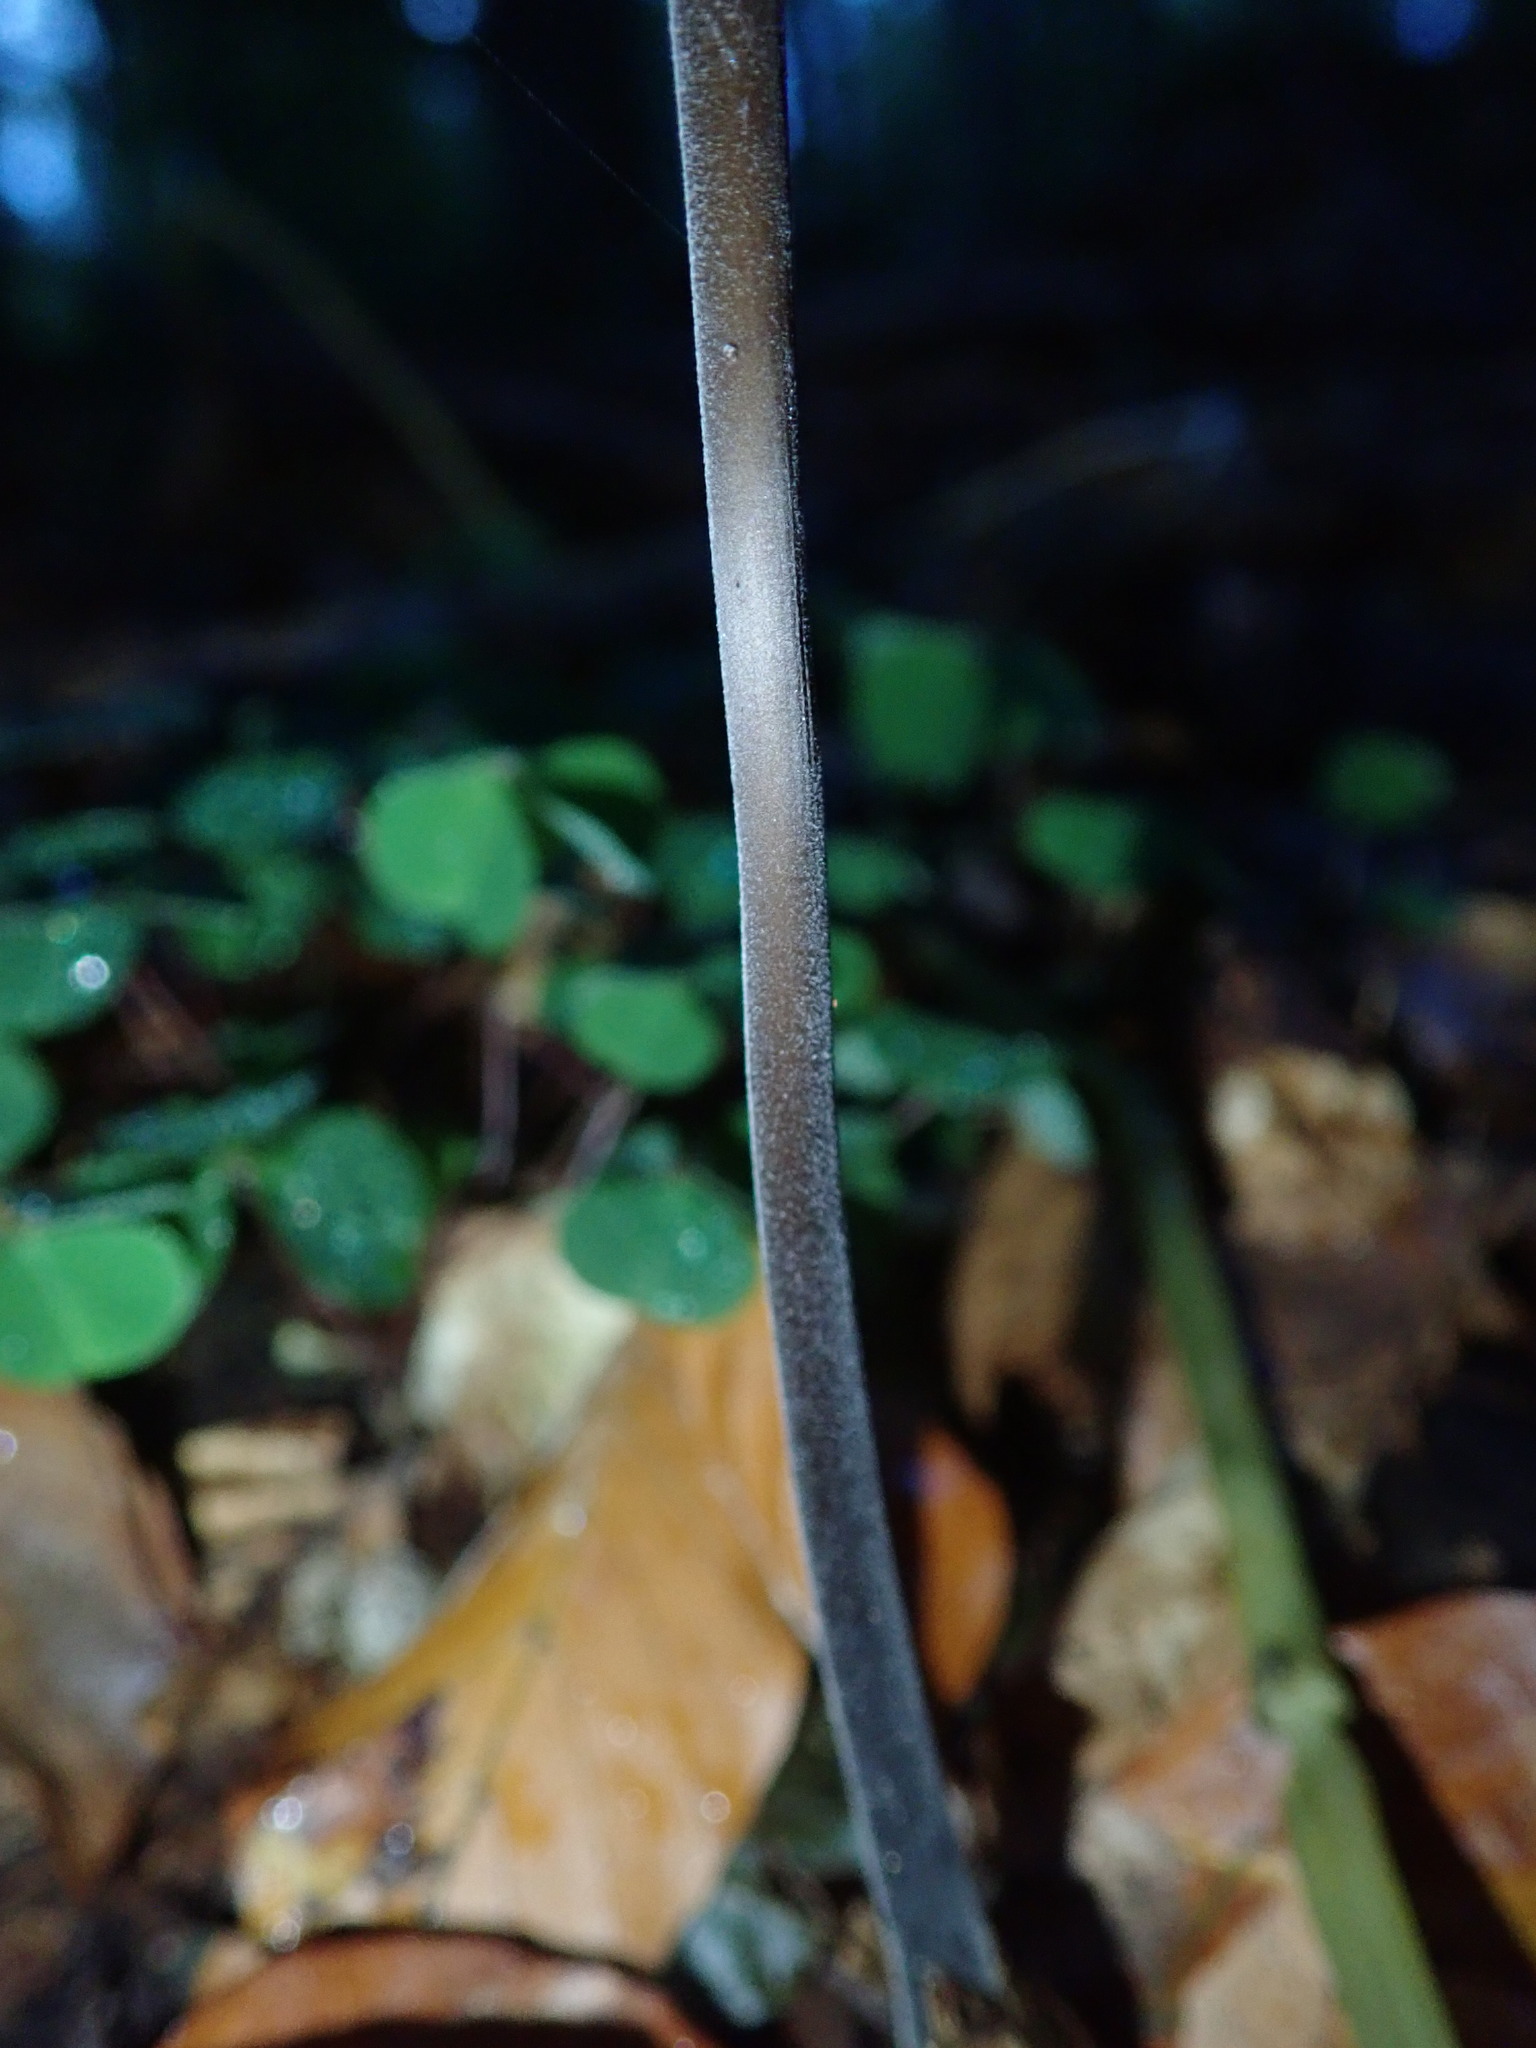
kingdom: Fungi
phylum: Basidiomycota
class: Agaricomycetes
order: Agaricales
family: Omphalotaceae
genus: Mycetinis
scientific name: Mycetinis alliaceus
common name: Garlic parachute
